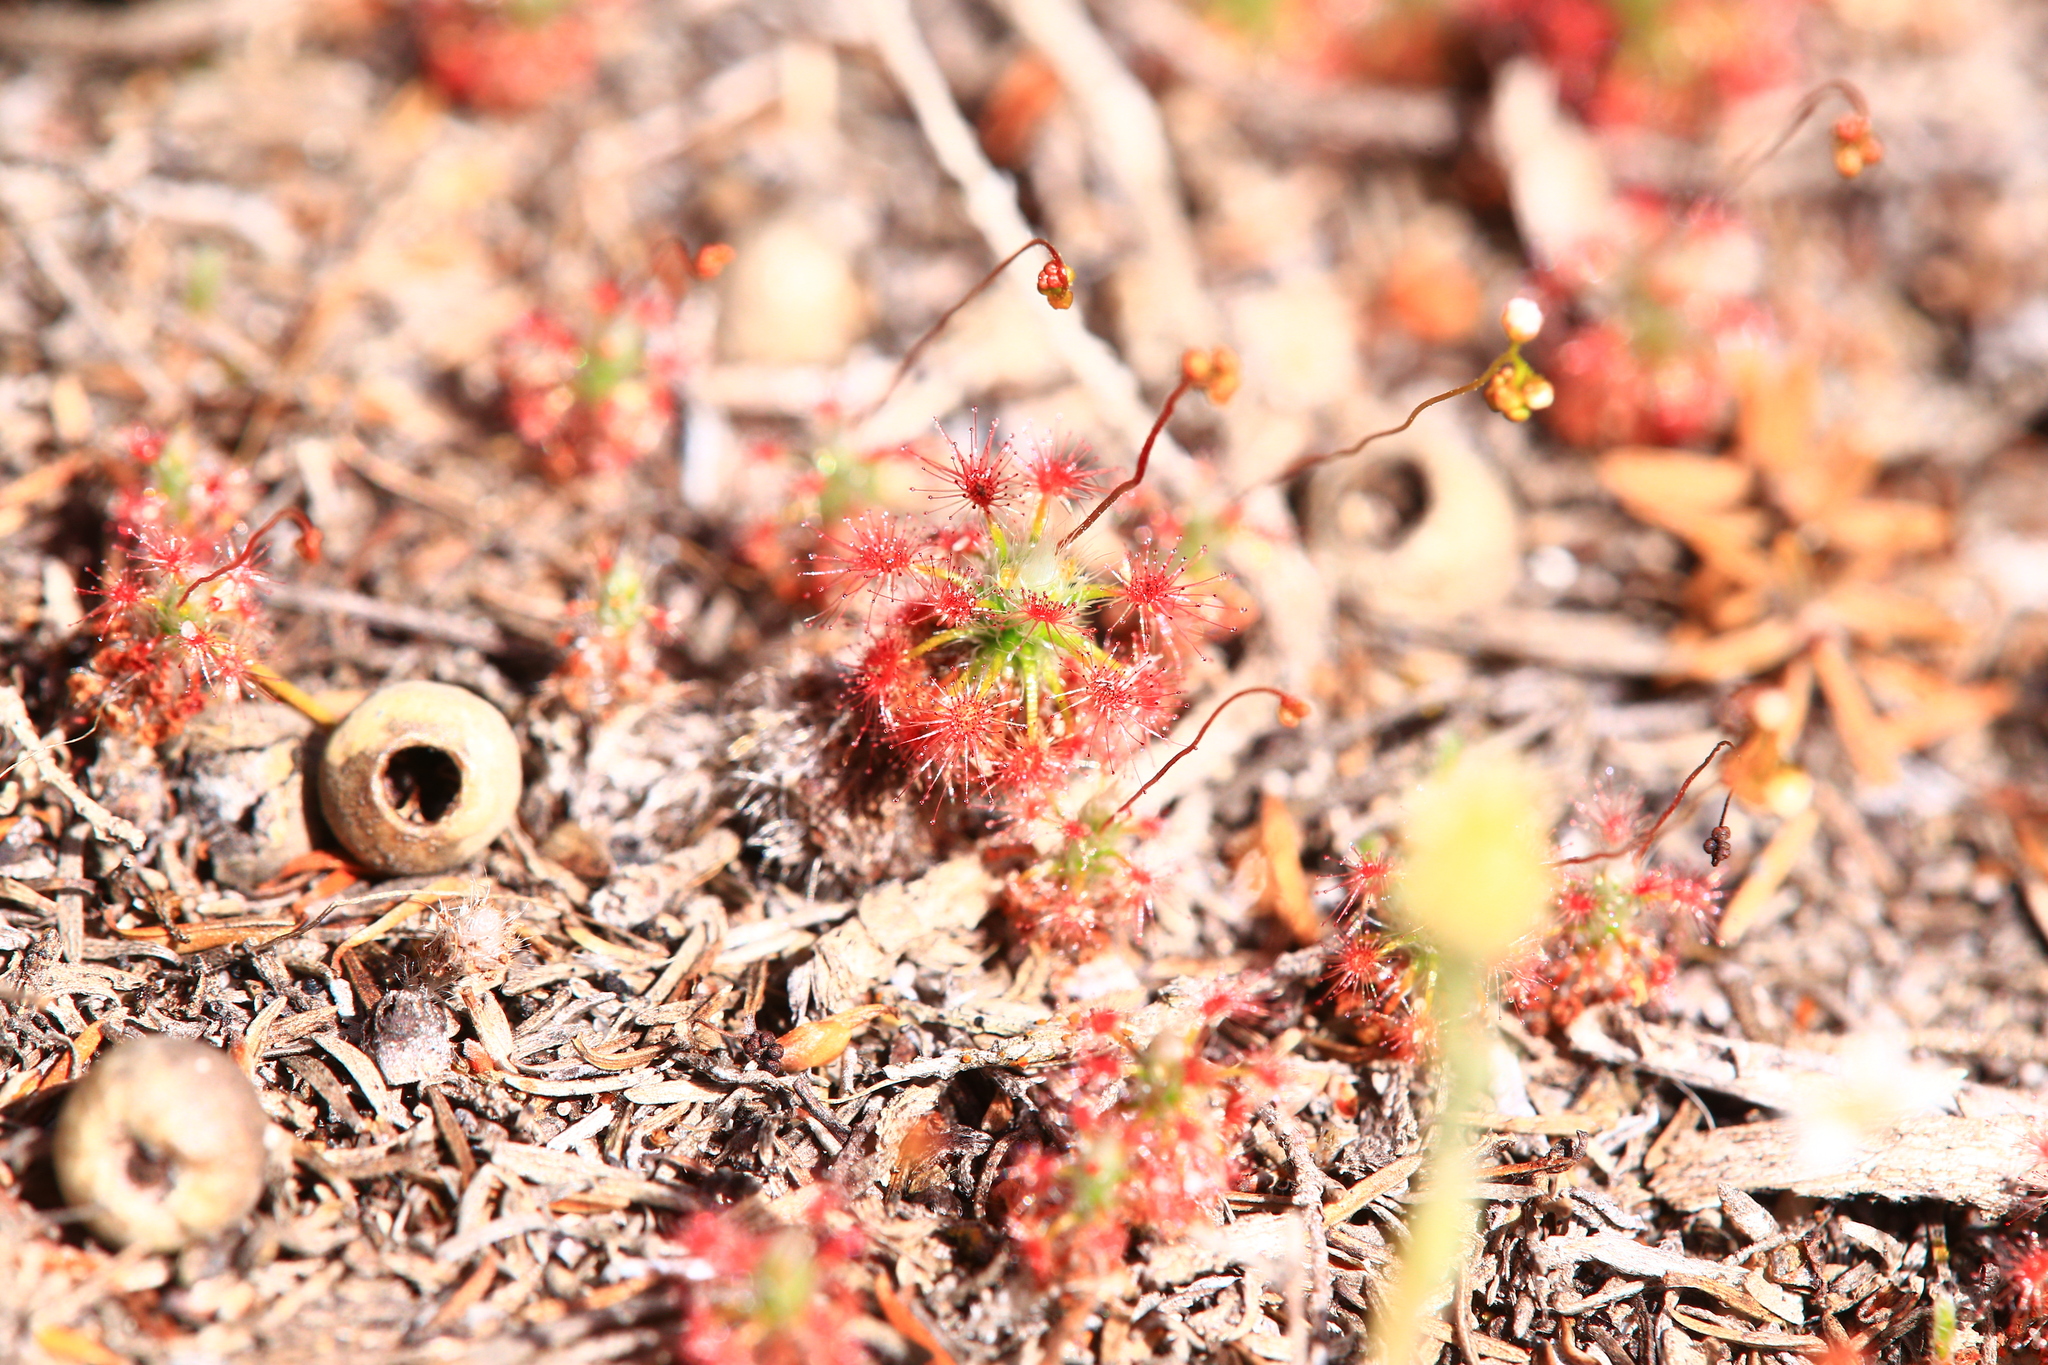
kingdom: Plantae
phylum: Tracheophyta
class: Magnoliopsida
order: Caryophyllales
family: Droseraceae
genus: Drosera
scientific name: Drosera paleacea
